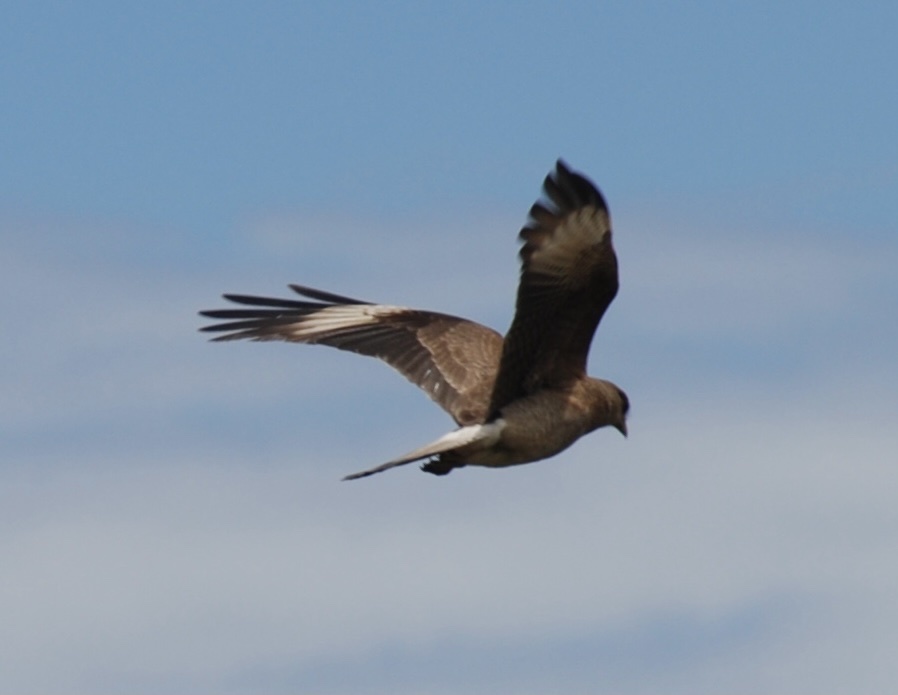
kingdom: Animalia
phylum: Chordata
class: Aves
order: Falconiformes
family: Falconidae
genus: Daptrius
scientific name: Daptrius
